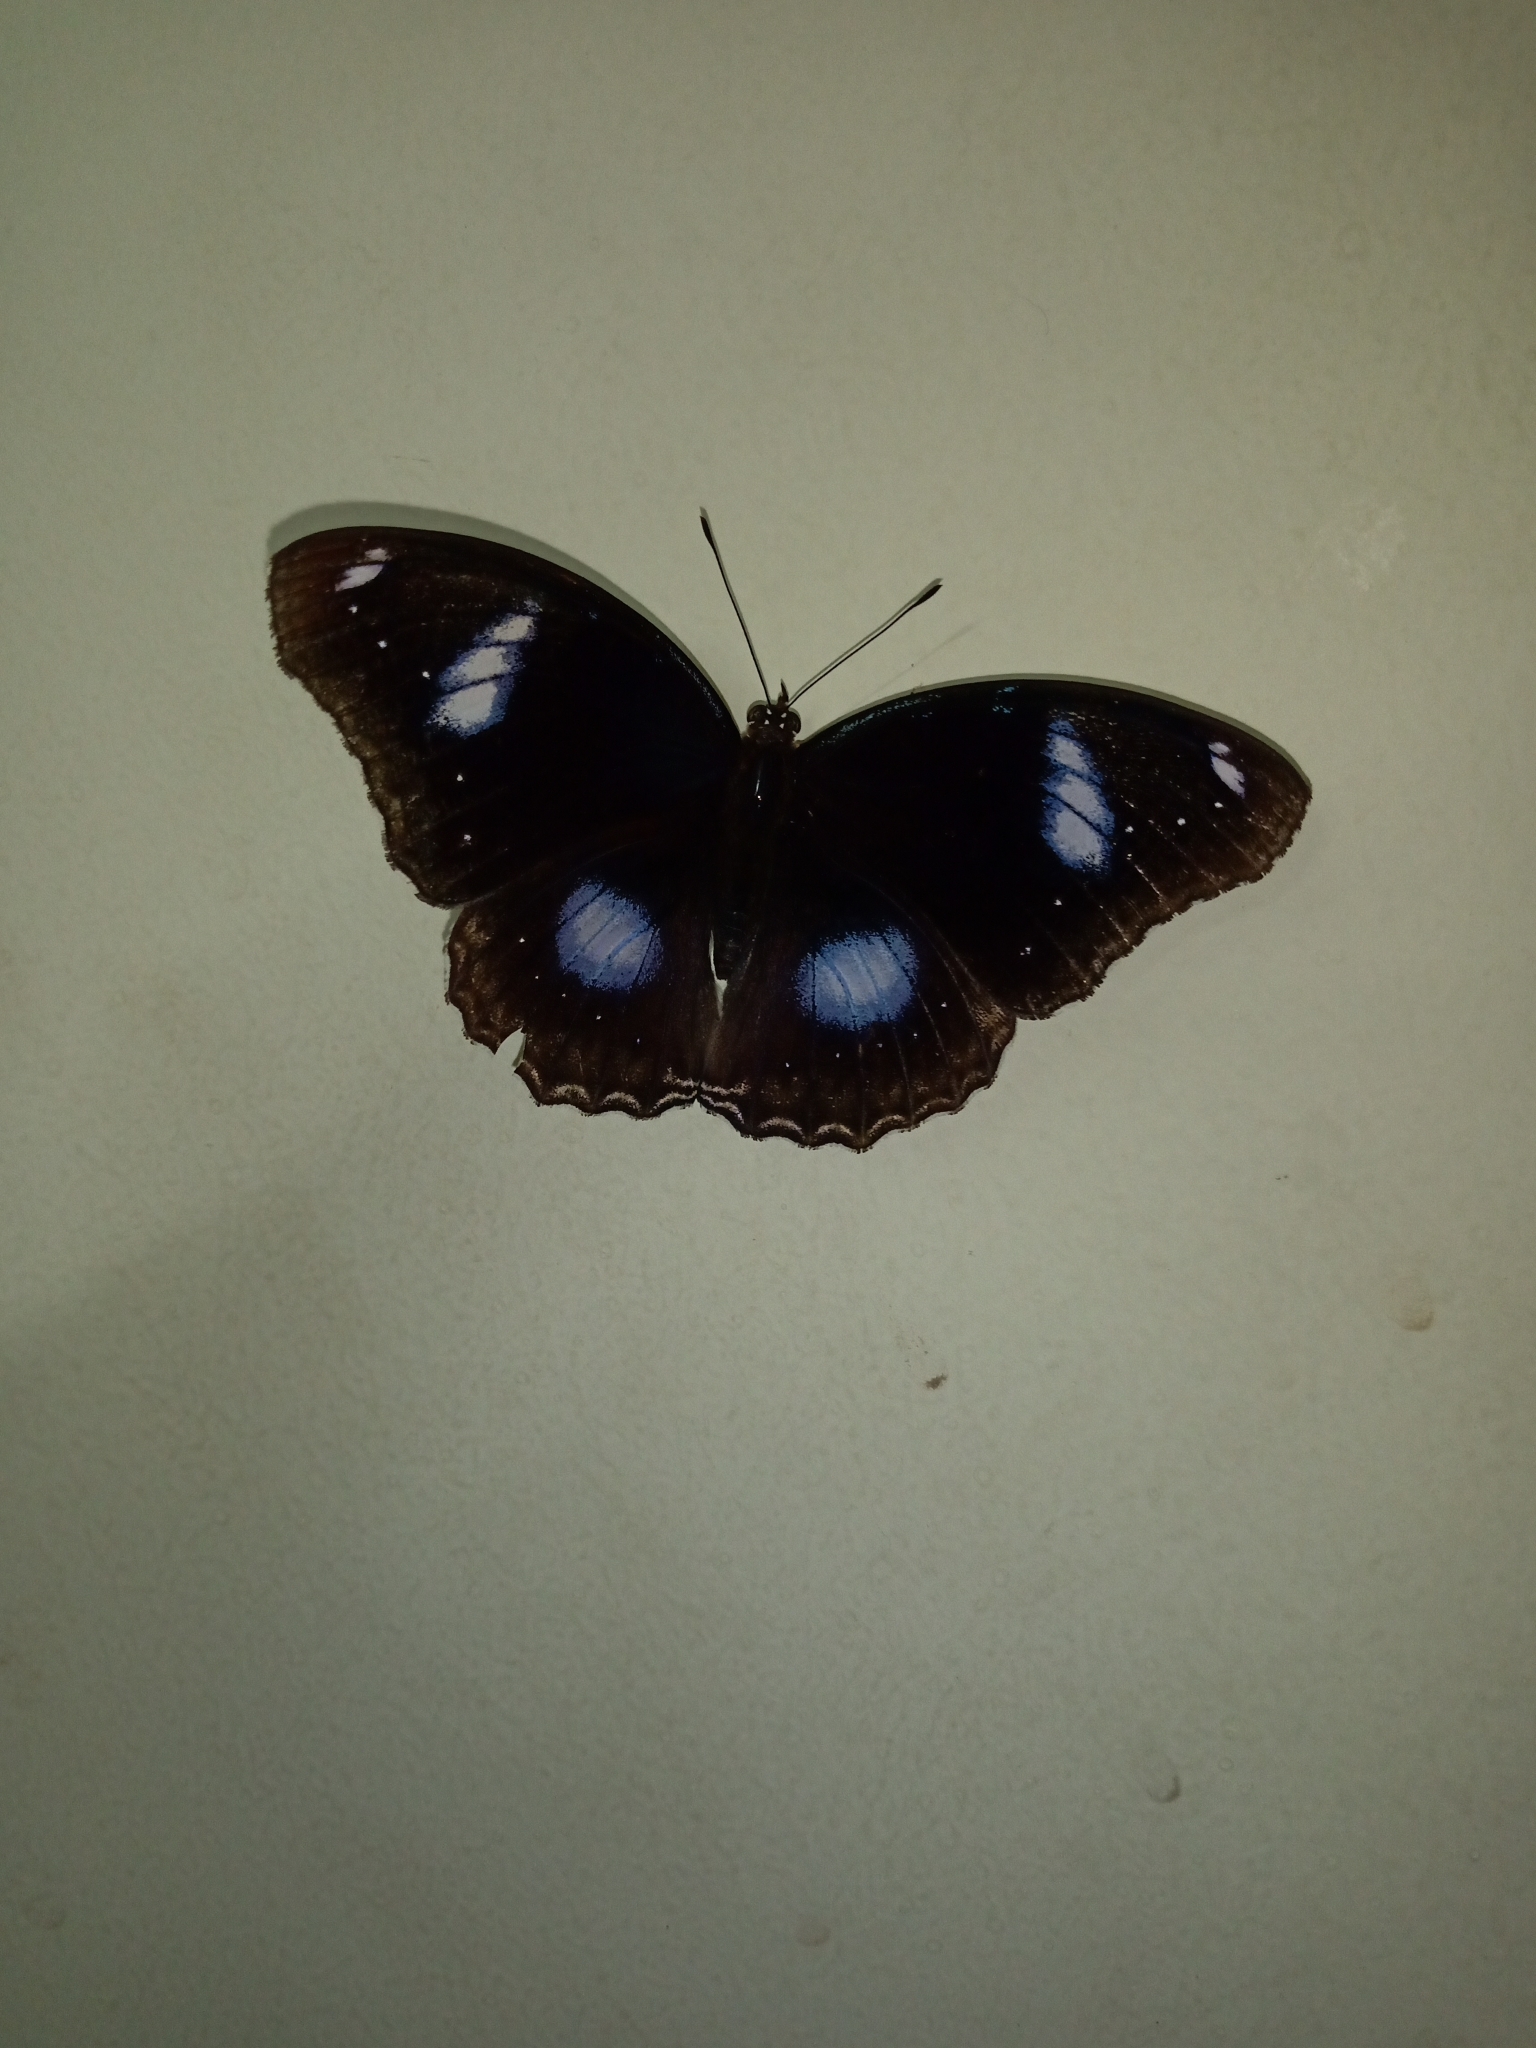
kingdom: Animalia
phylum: Arthropoda
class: Insecta
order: Lepidoptera
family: Nymphalidae
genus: Hypolimnas
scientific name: Hypolimnas bolina
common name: Great eggfly
